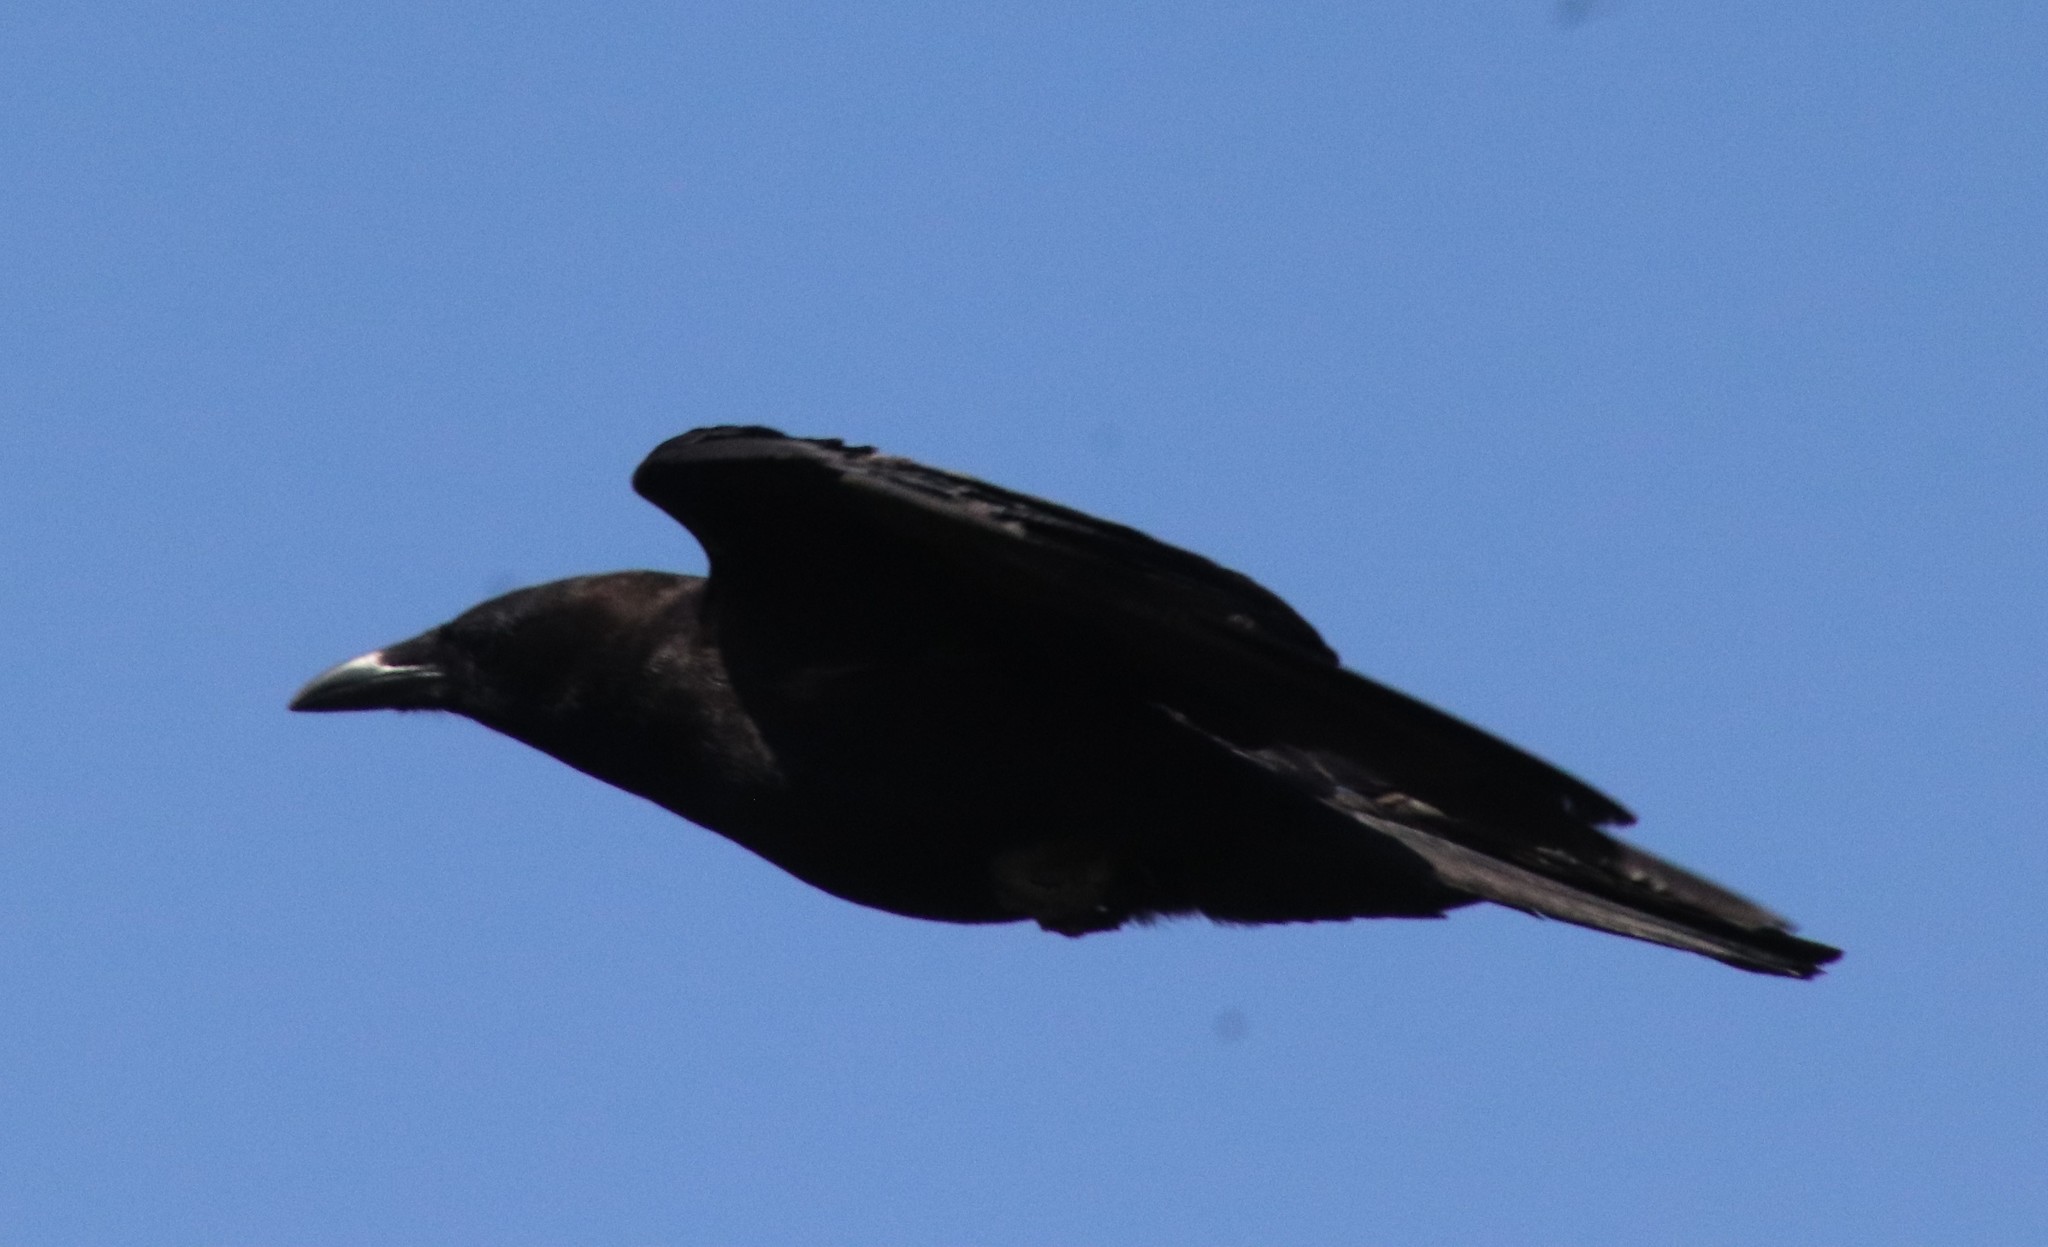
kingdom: Animalia
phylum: Chordata
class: Aves
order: Passeriformes
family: Corvidae
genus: Corvus
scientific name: Corvus brachyrhynchos
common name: American crow
